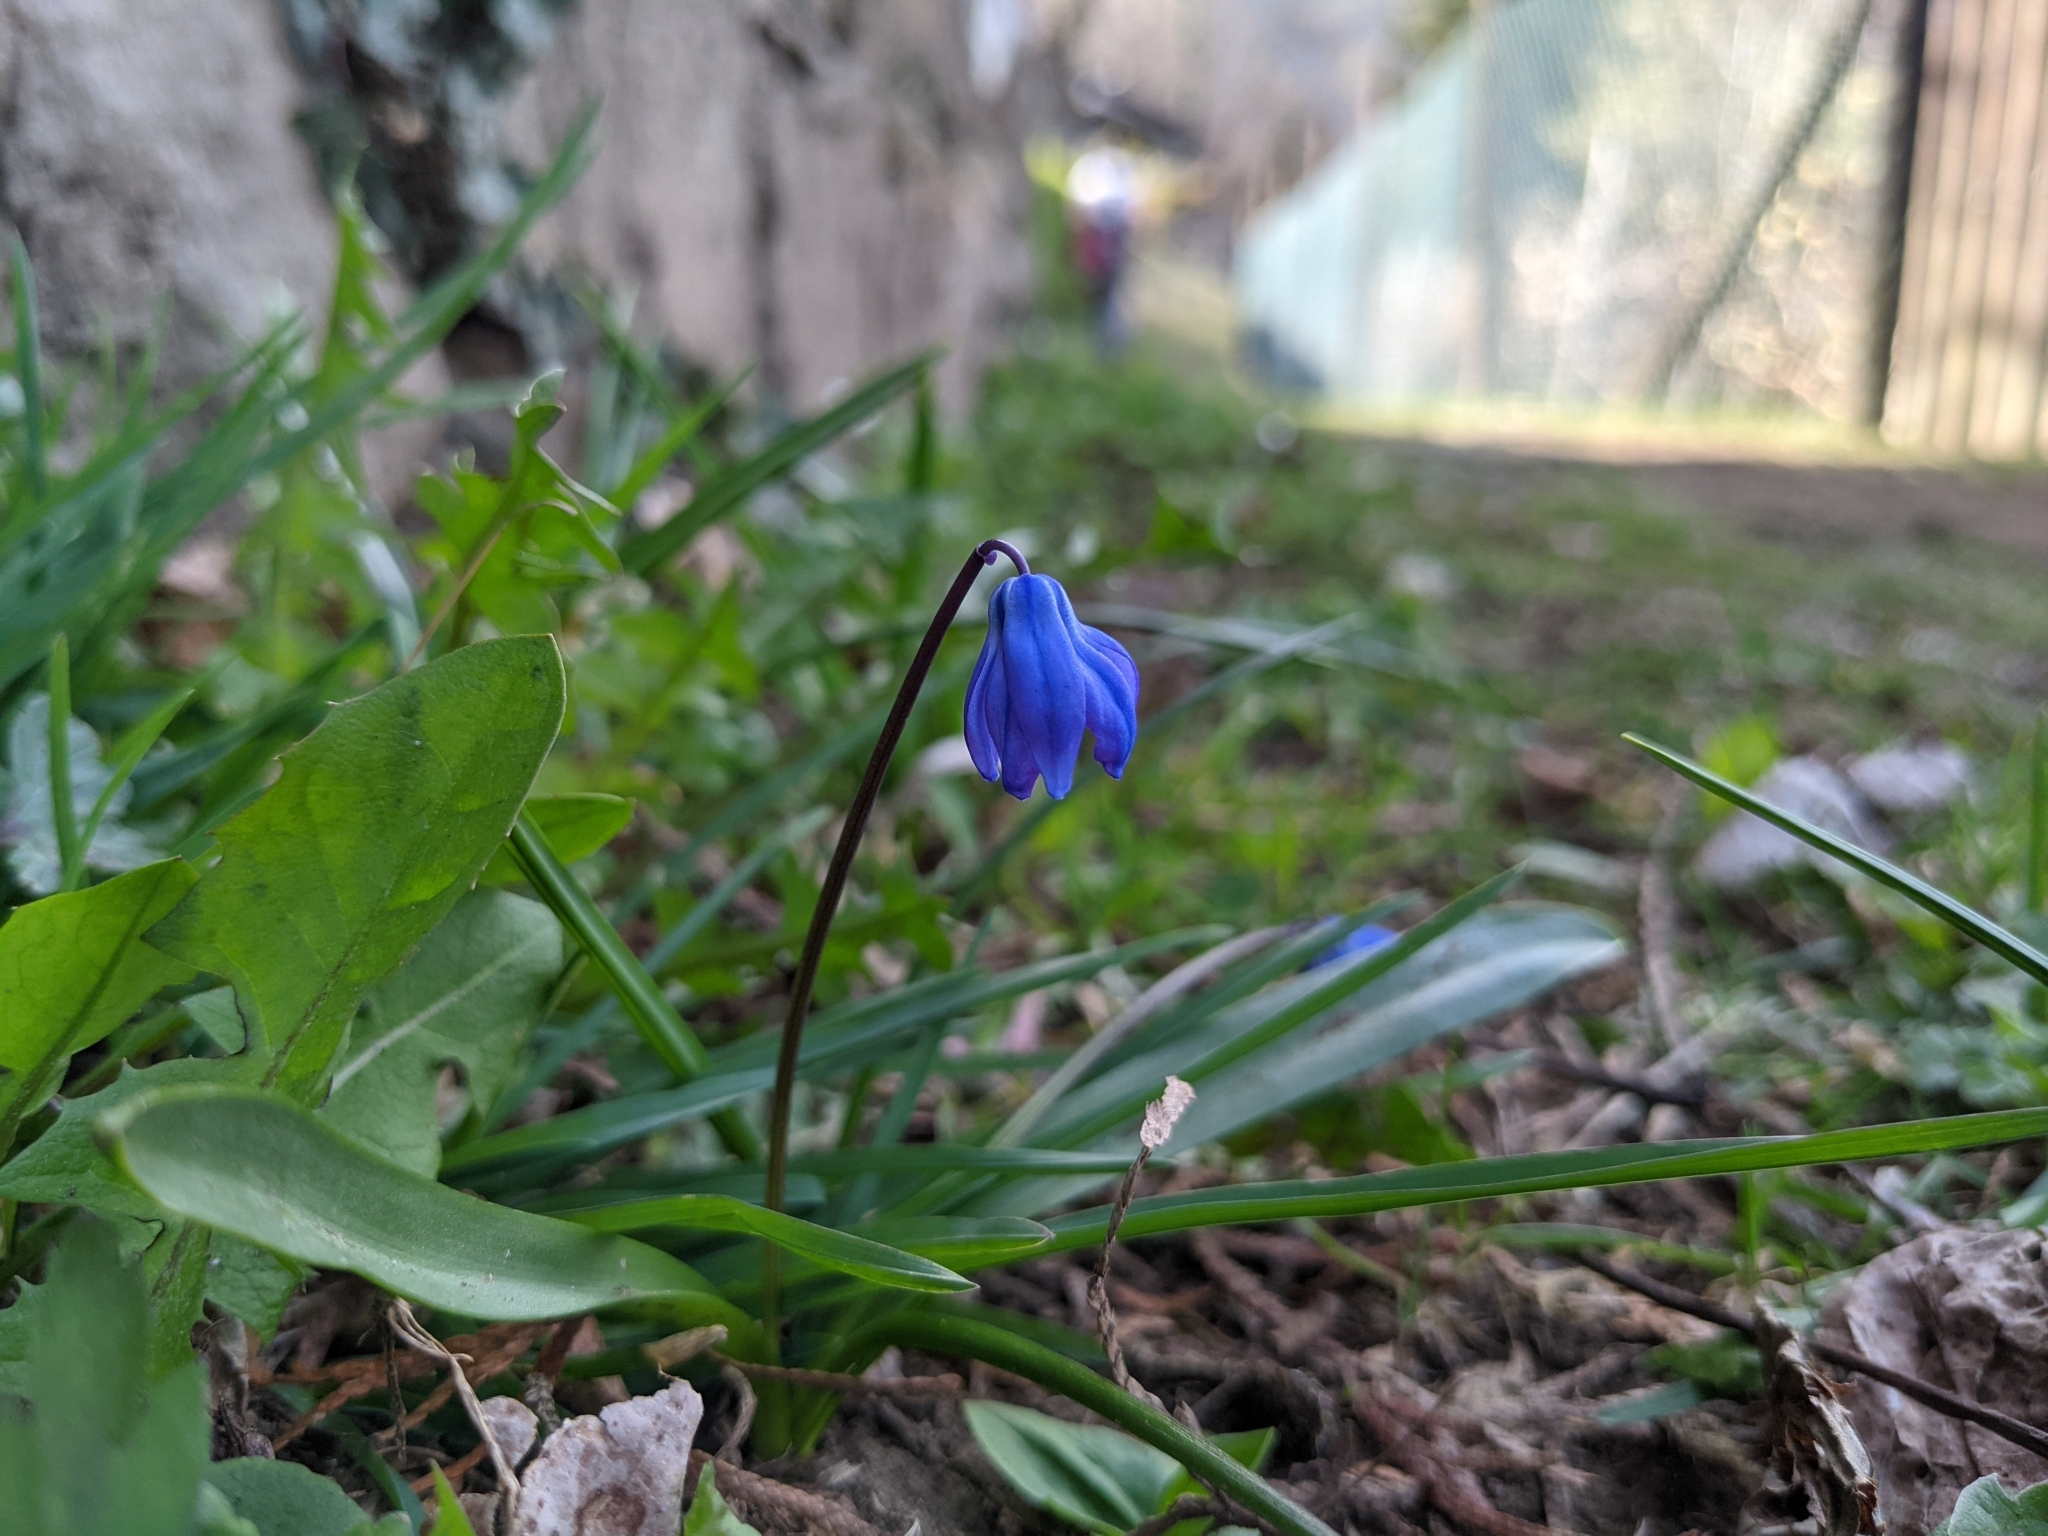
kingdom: Plantae
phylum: Tracheophyta
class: Liliopsida
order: Asparagales
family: Asparagaceae
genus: Scilla
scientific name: Scilla siberica
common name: Siberian squill
